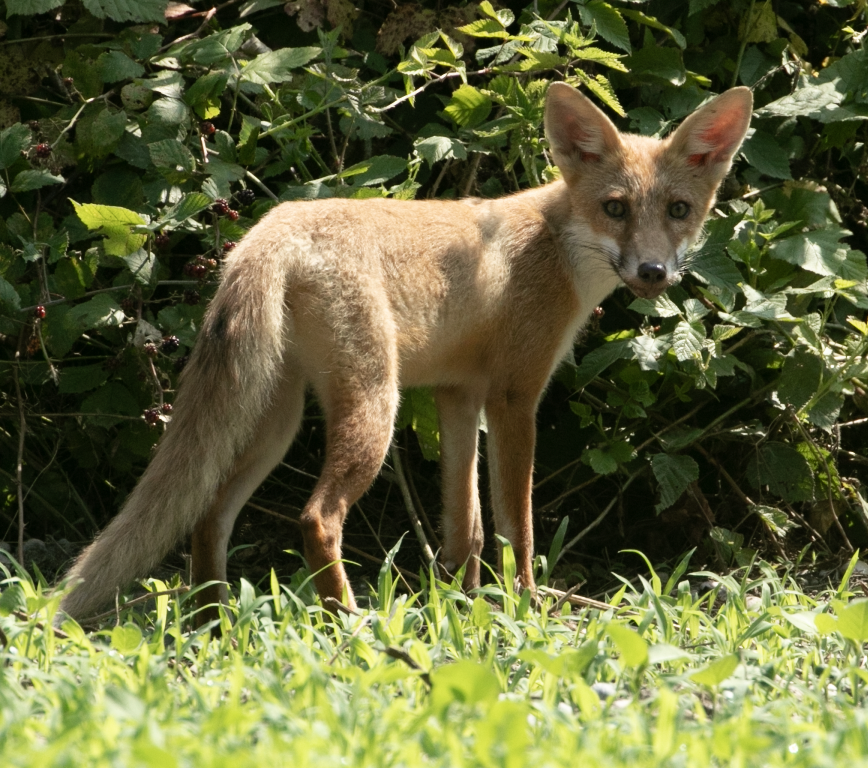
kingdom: Animalia
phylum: Chordata
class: Mammalia
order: Carnivora
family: Canidae
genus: Vulpes
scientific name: Vulpes vulpes
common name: Red fox
